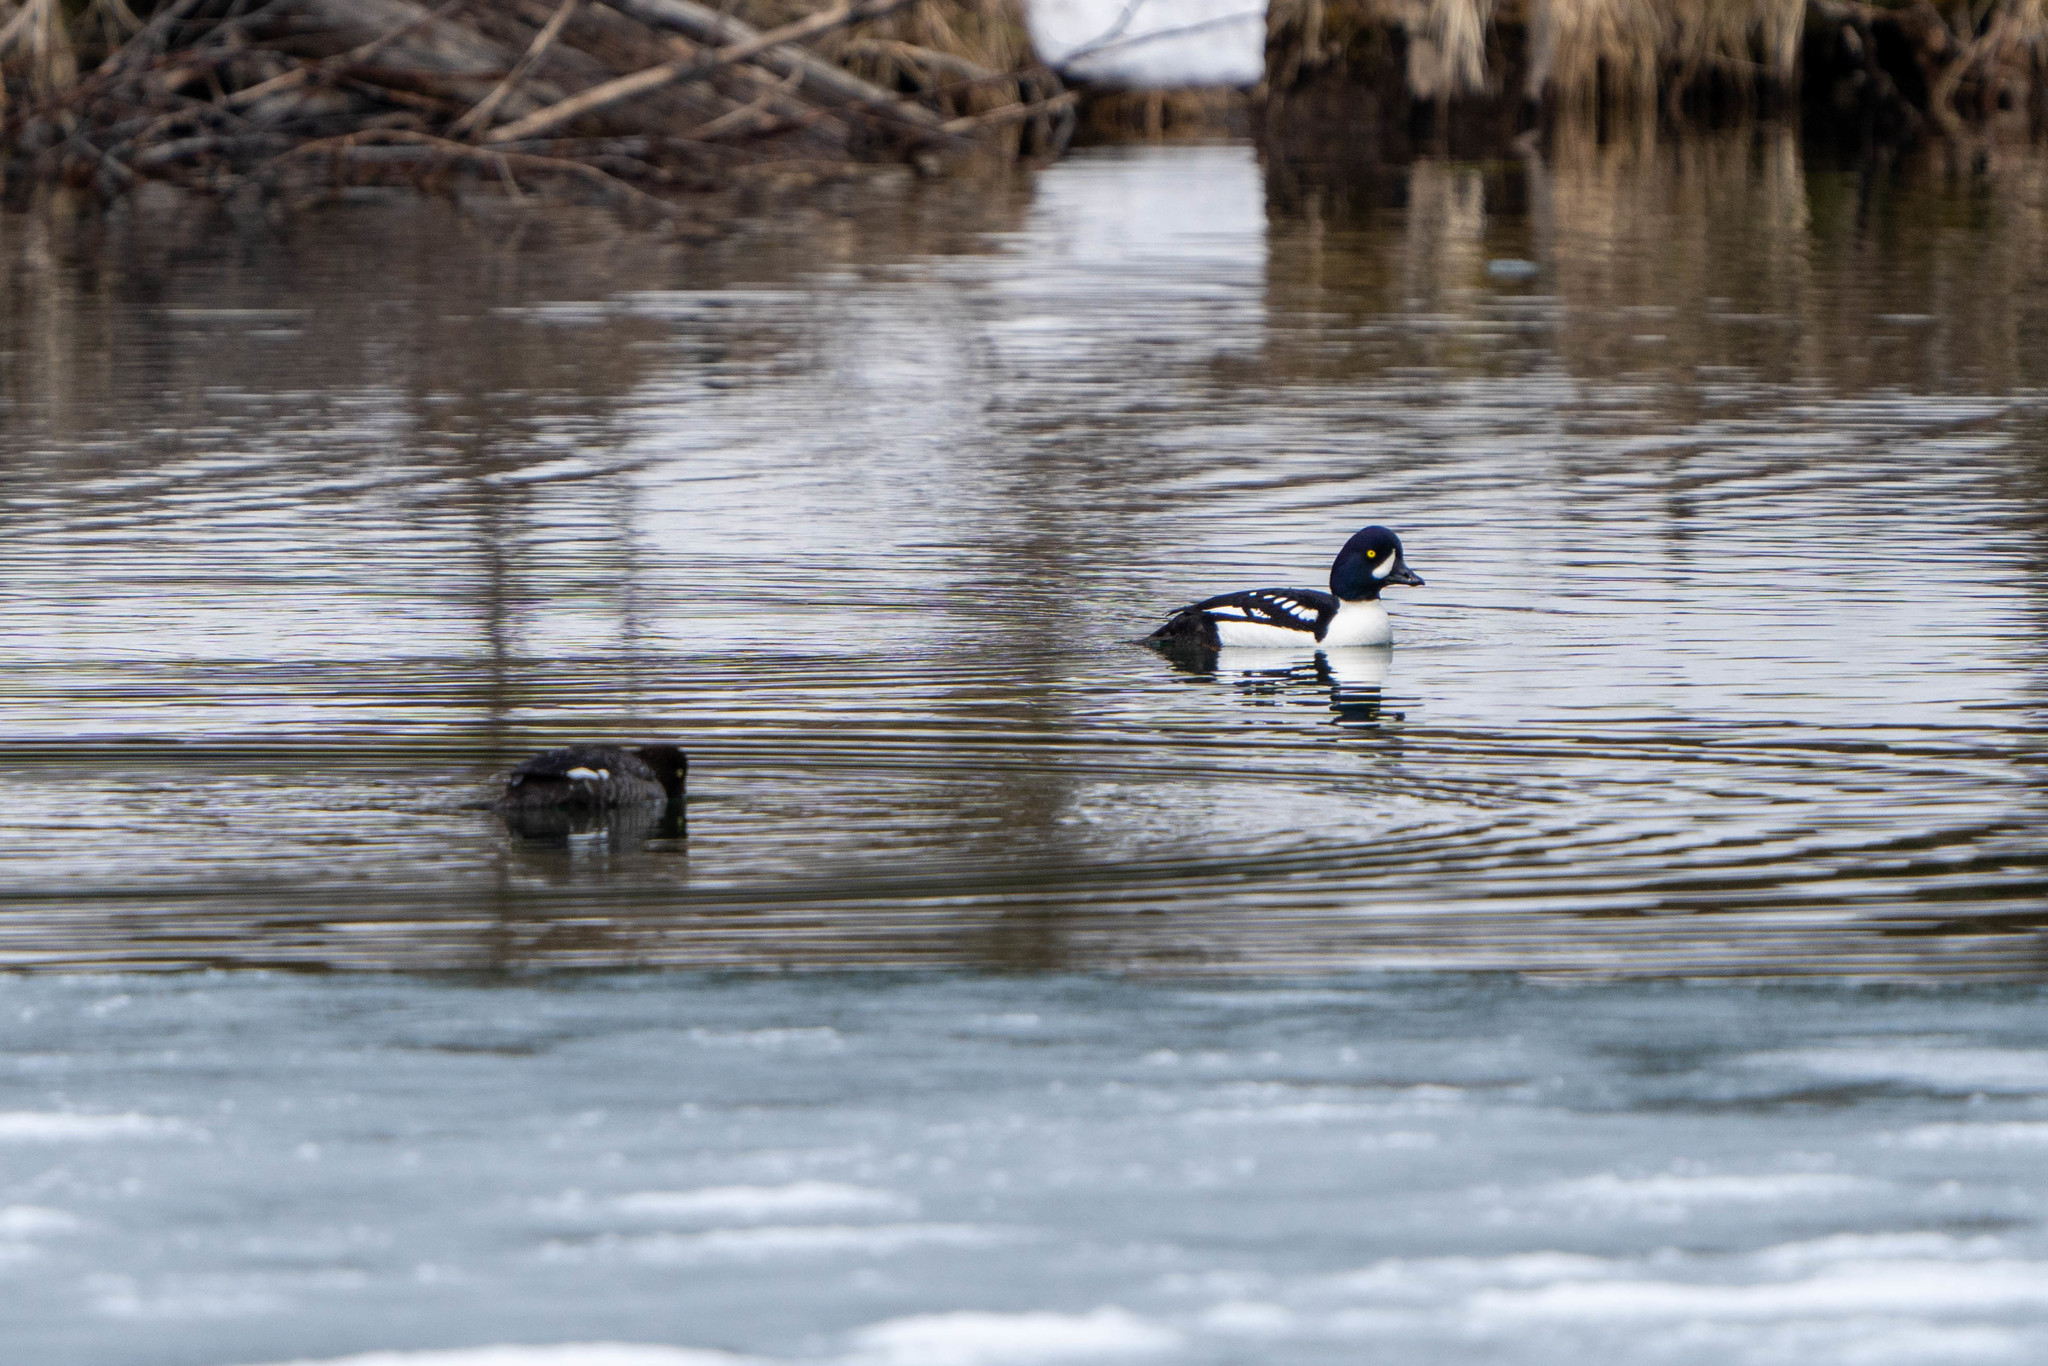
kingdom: Animalia
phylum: Chordata
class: Aves
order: Anseriformes
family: Anatidae
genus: Bucephala
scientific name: Bucephala islandica
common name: Barrow's goldeneye
